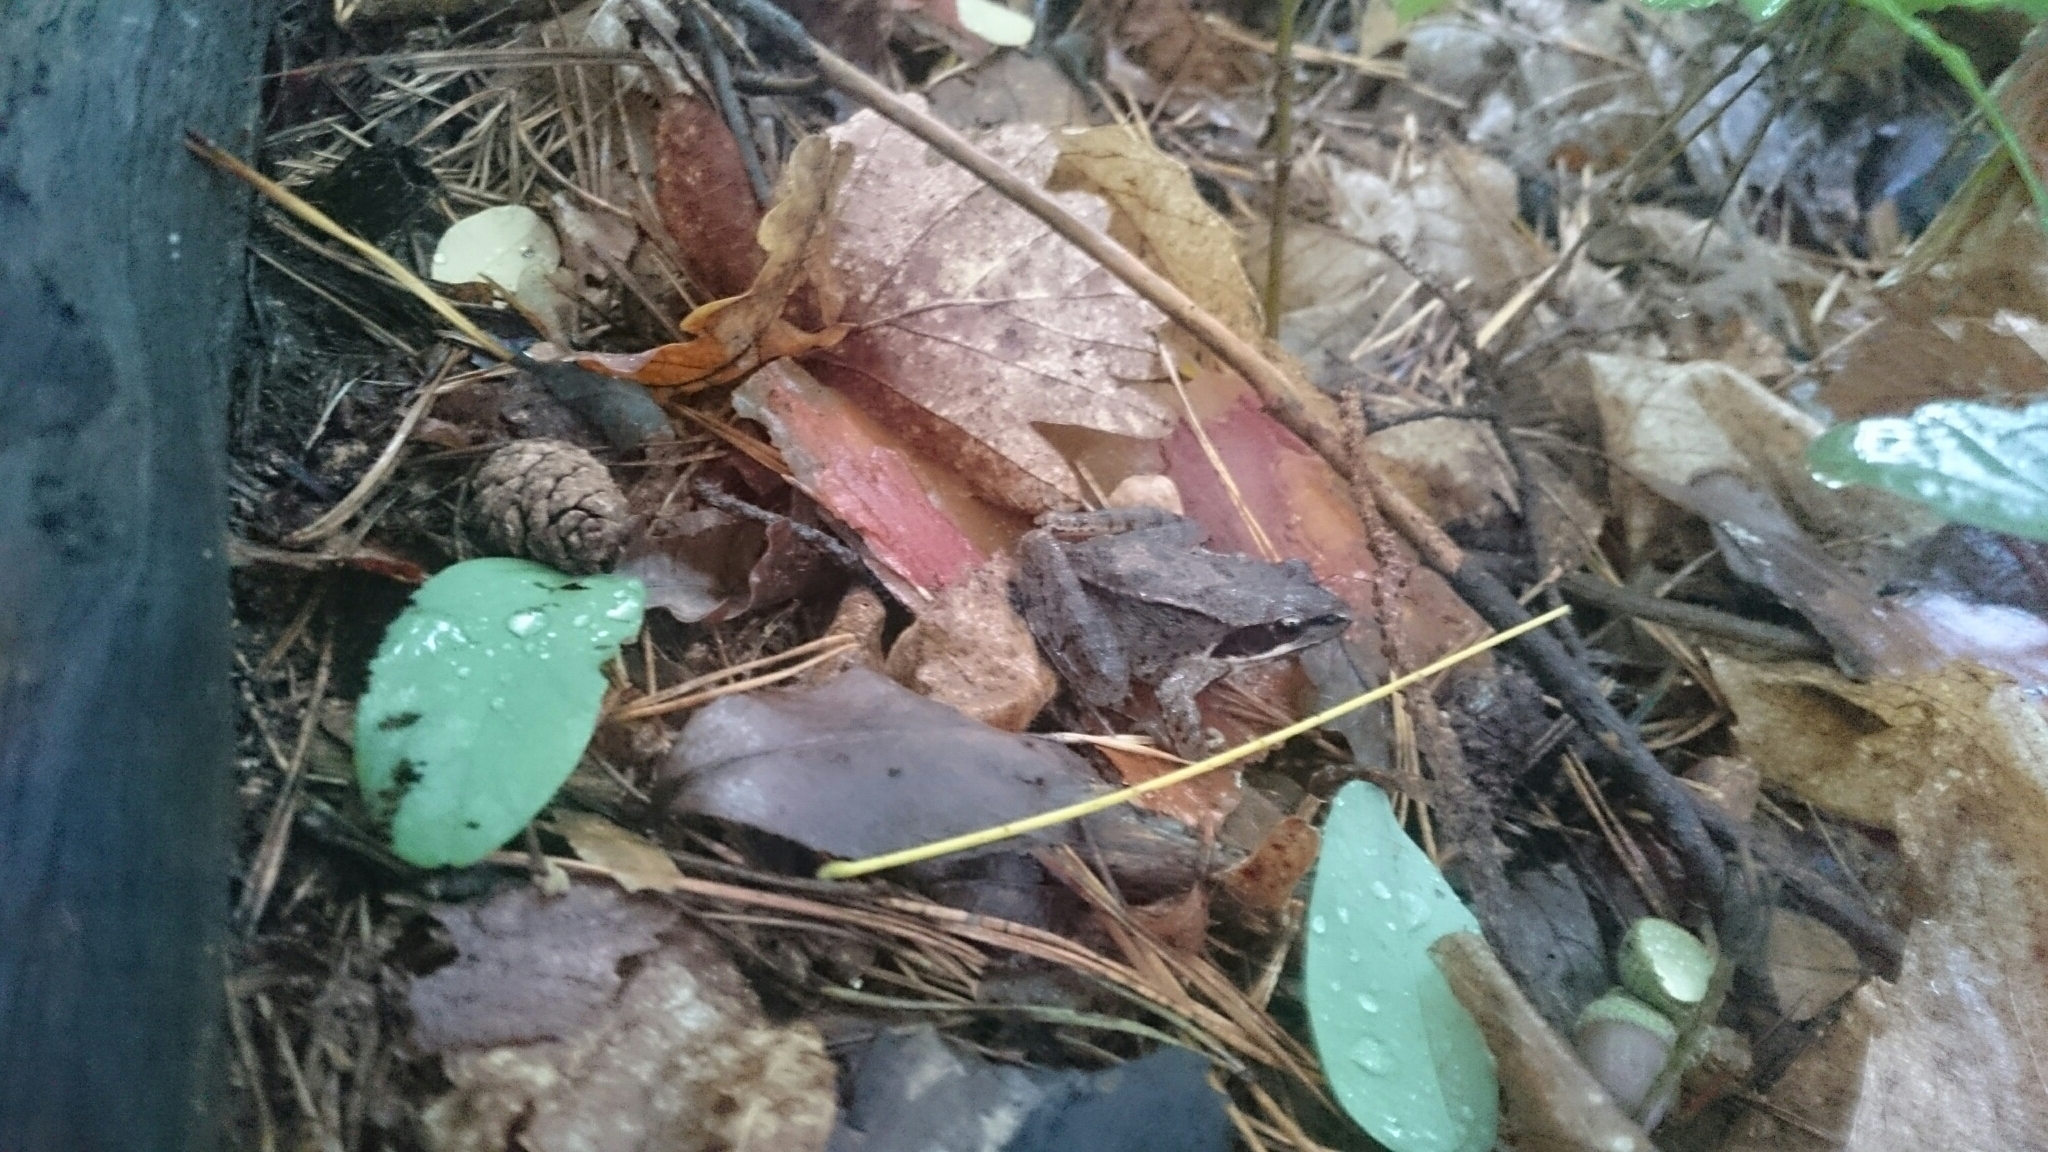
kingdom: Animalia
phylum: Chordata
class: Amphibia
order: Anura
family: Ranidae
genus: Rana
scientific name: Rana dalmatina
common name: Agile frog
